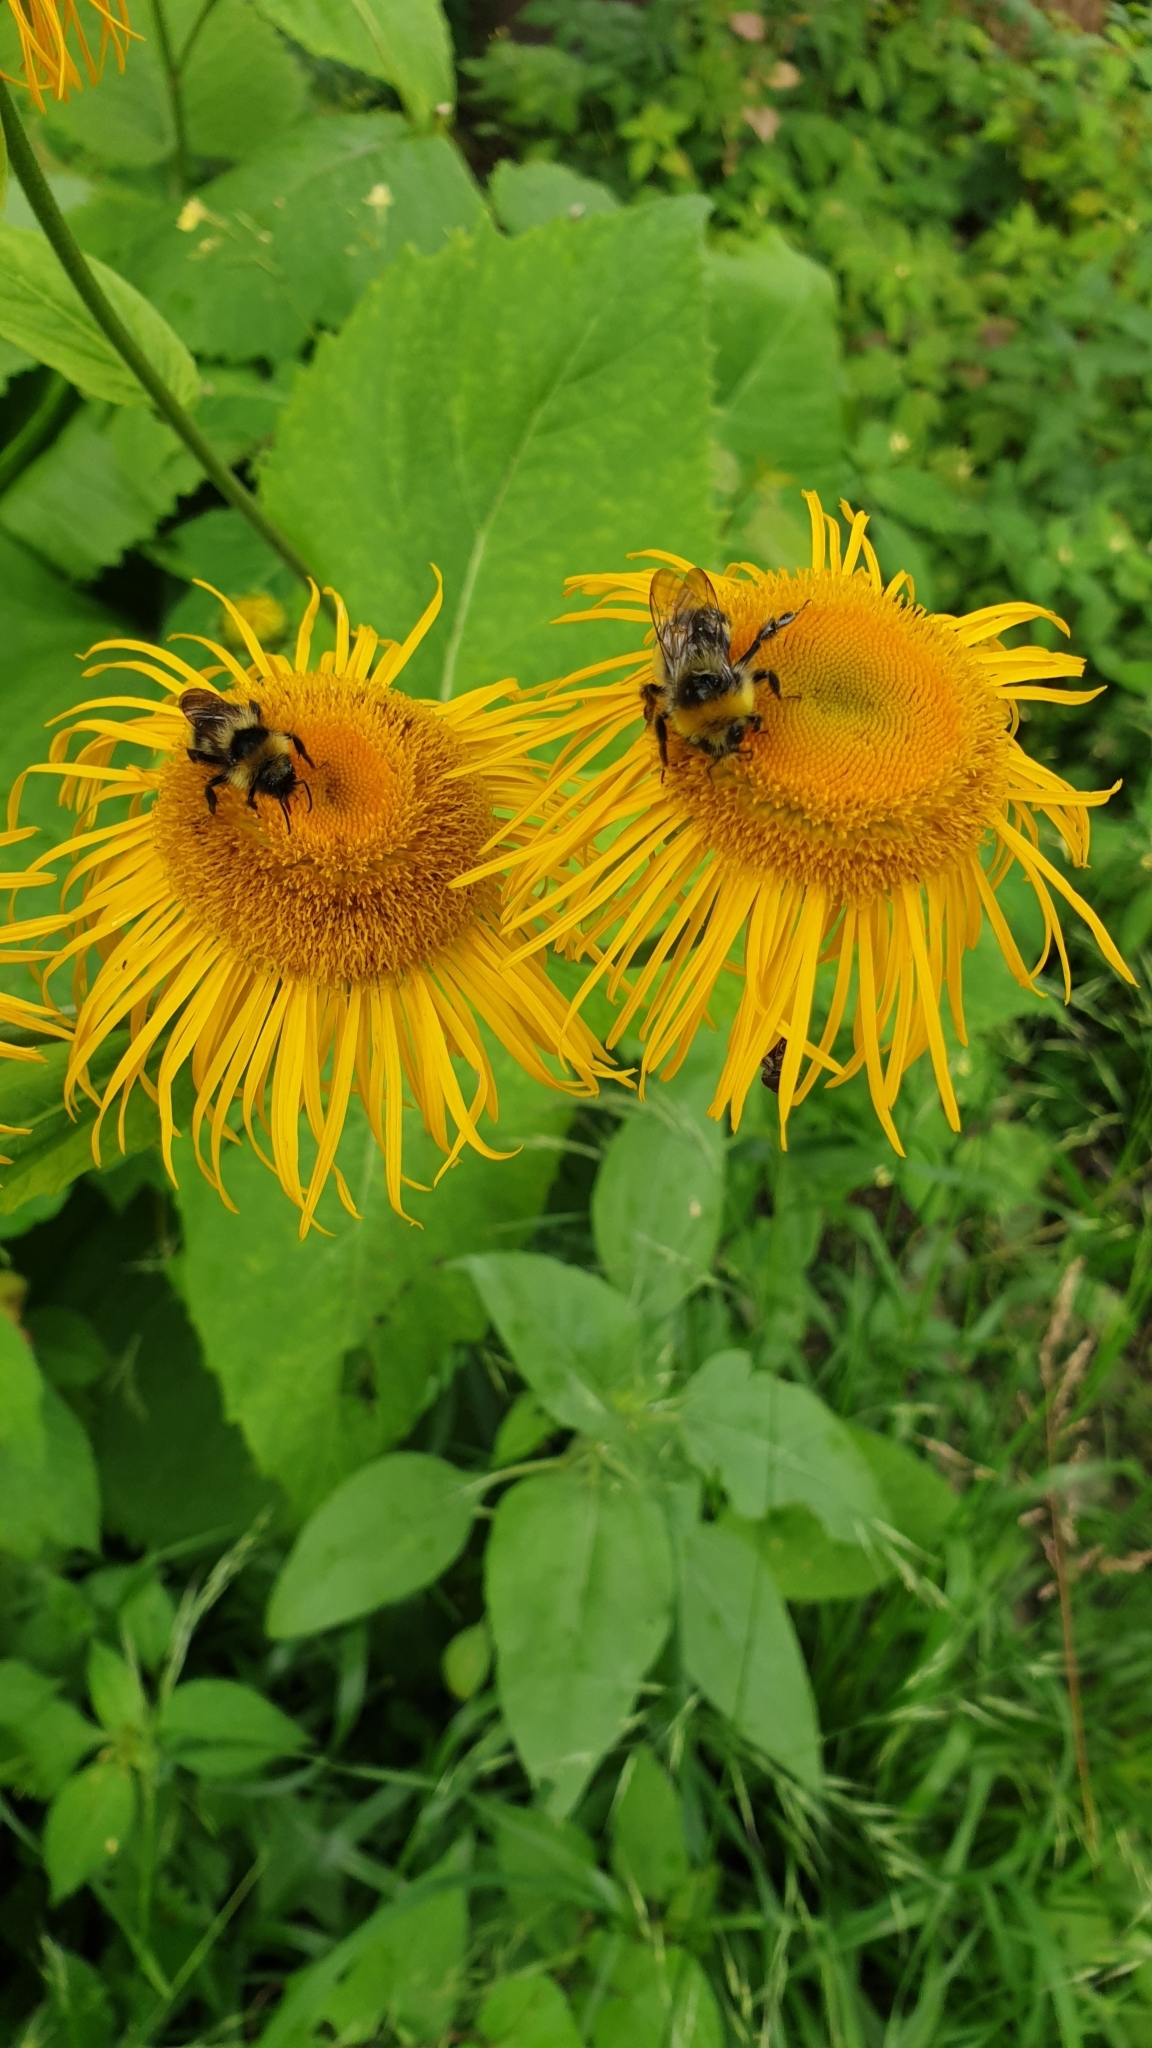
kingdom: Plantae
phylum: Tracheophyta
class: Magnoliopsida
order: Asterales
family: Asteraceae
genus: Telekia
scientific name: Telekia speciosa
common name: Yellow oxeye
